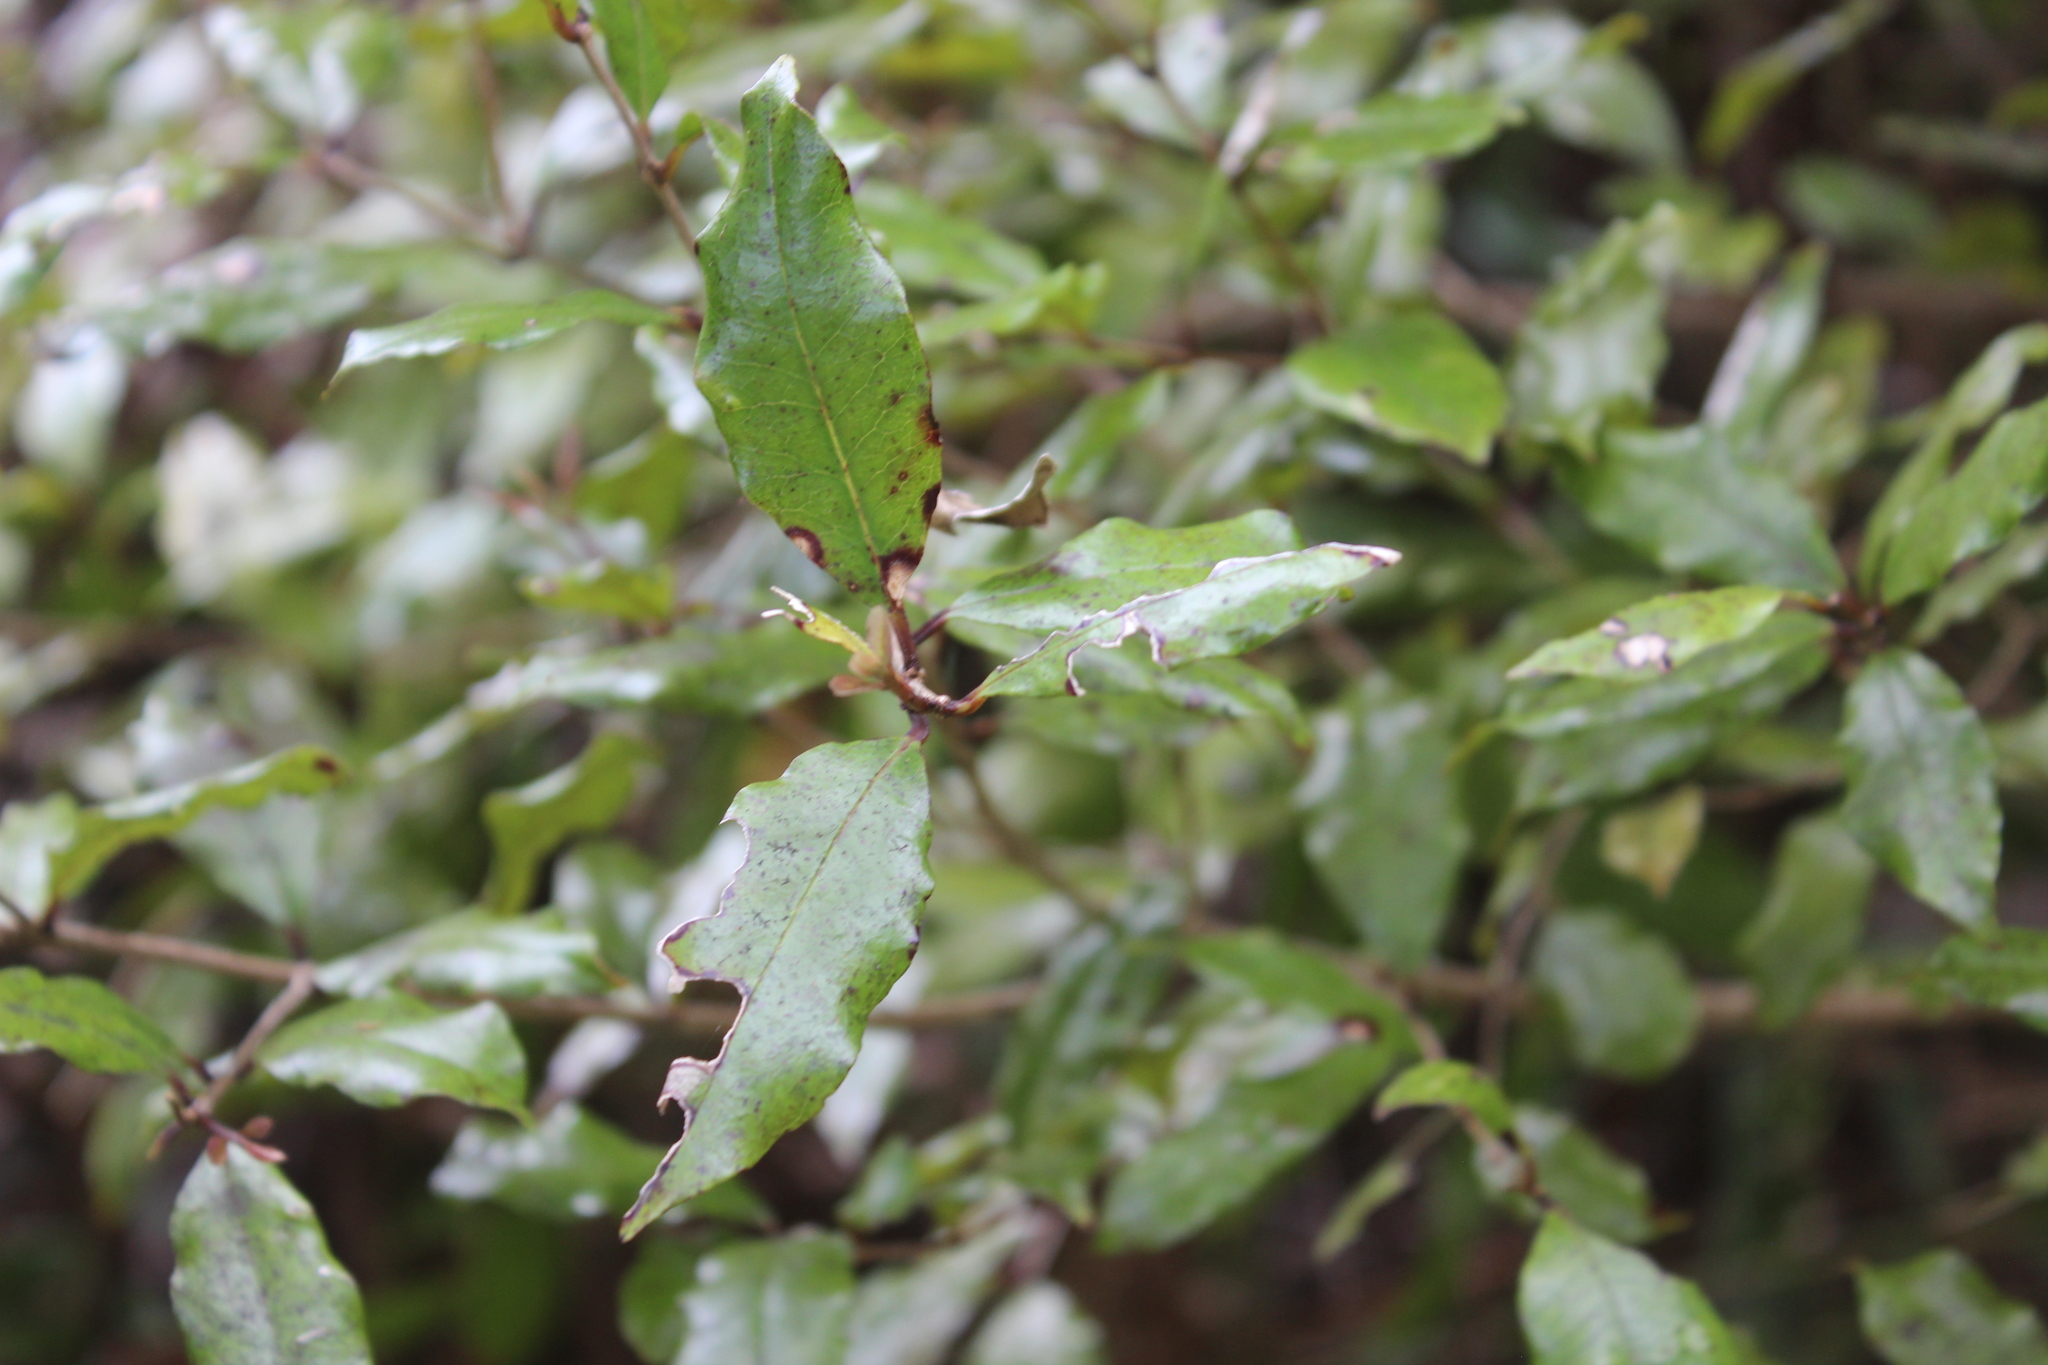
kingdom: Plantae
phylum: Tracheophyta
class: Magnoliopsida
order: Myrtales
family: Myrtaceae
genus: Syzygium
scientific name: Syzygium maire
